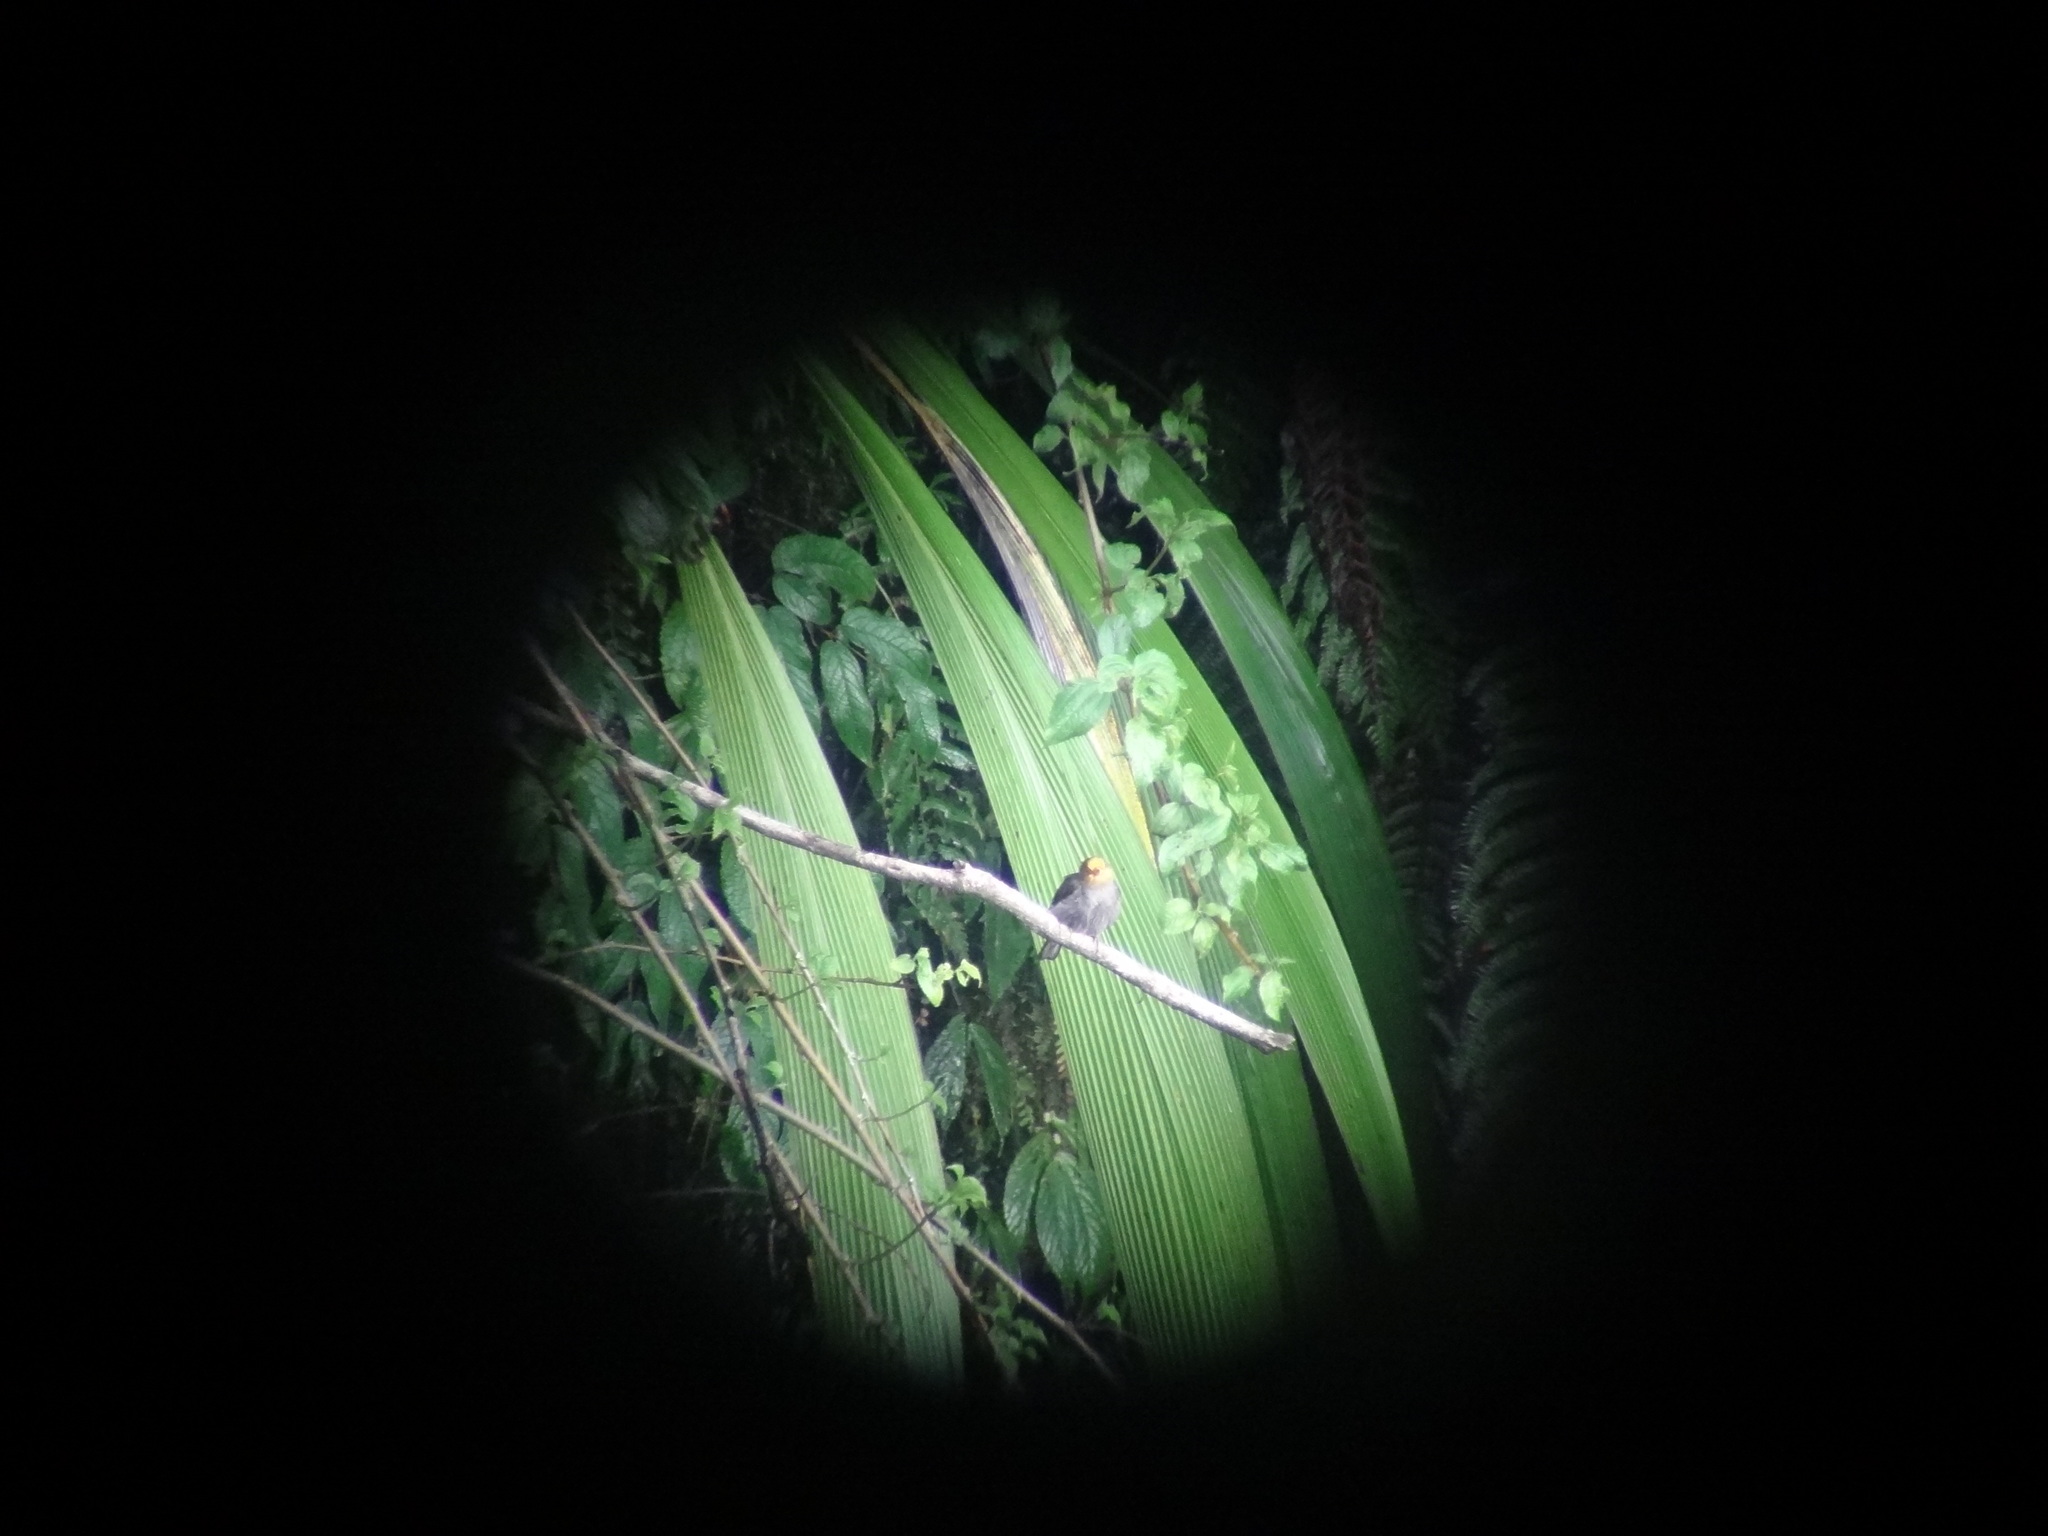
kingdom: Animalia
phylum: Chordata
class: Aves
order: Piciformes
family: Indicatoridae
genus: Indicator
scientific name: Indicator xanthonotus
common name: Yellow-rumped honeyguide
